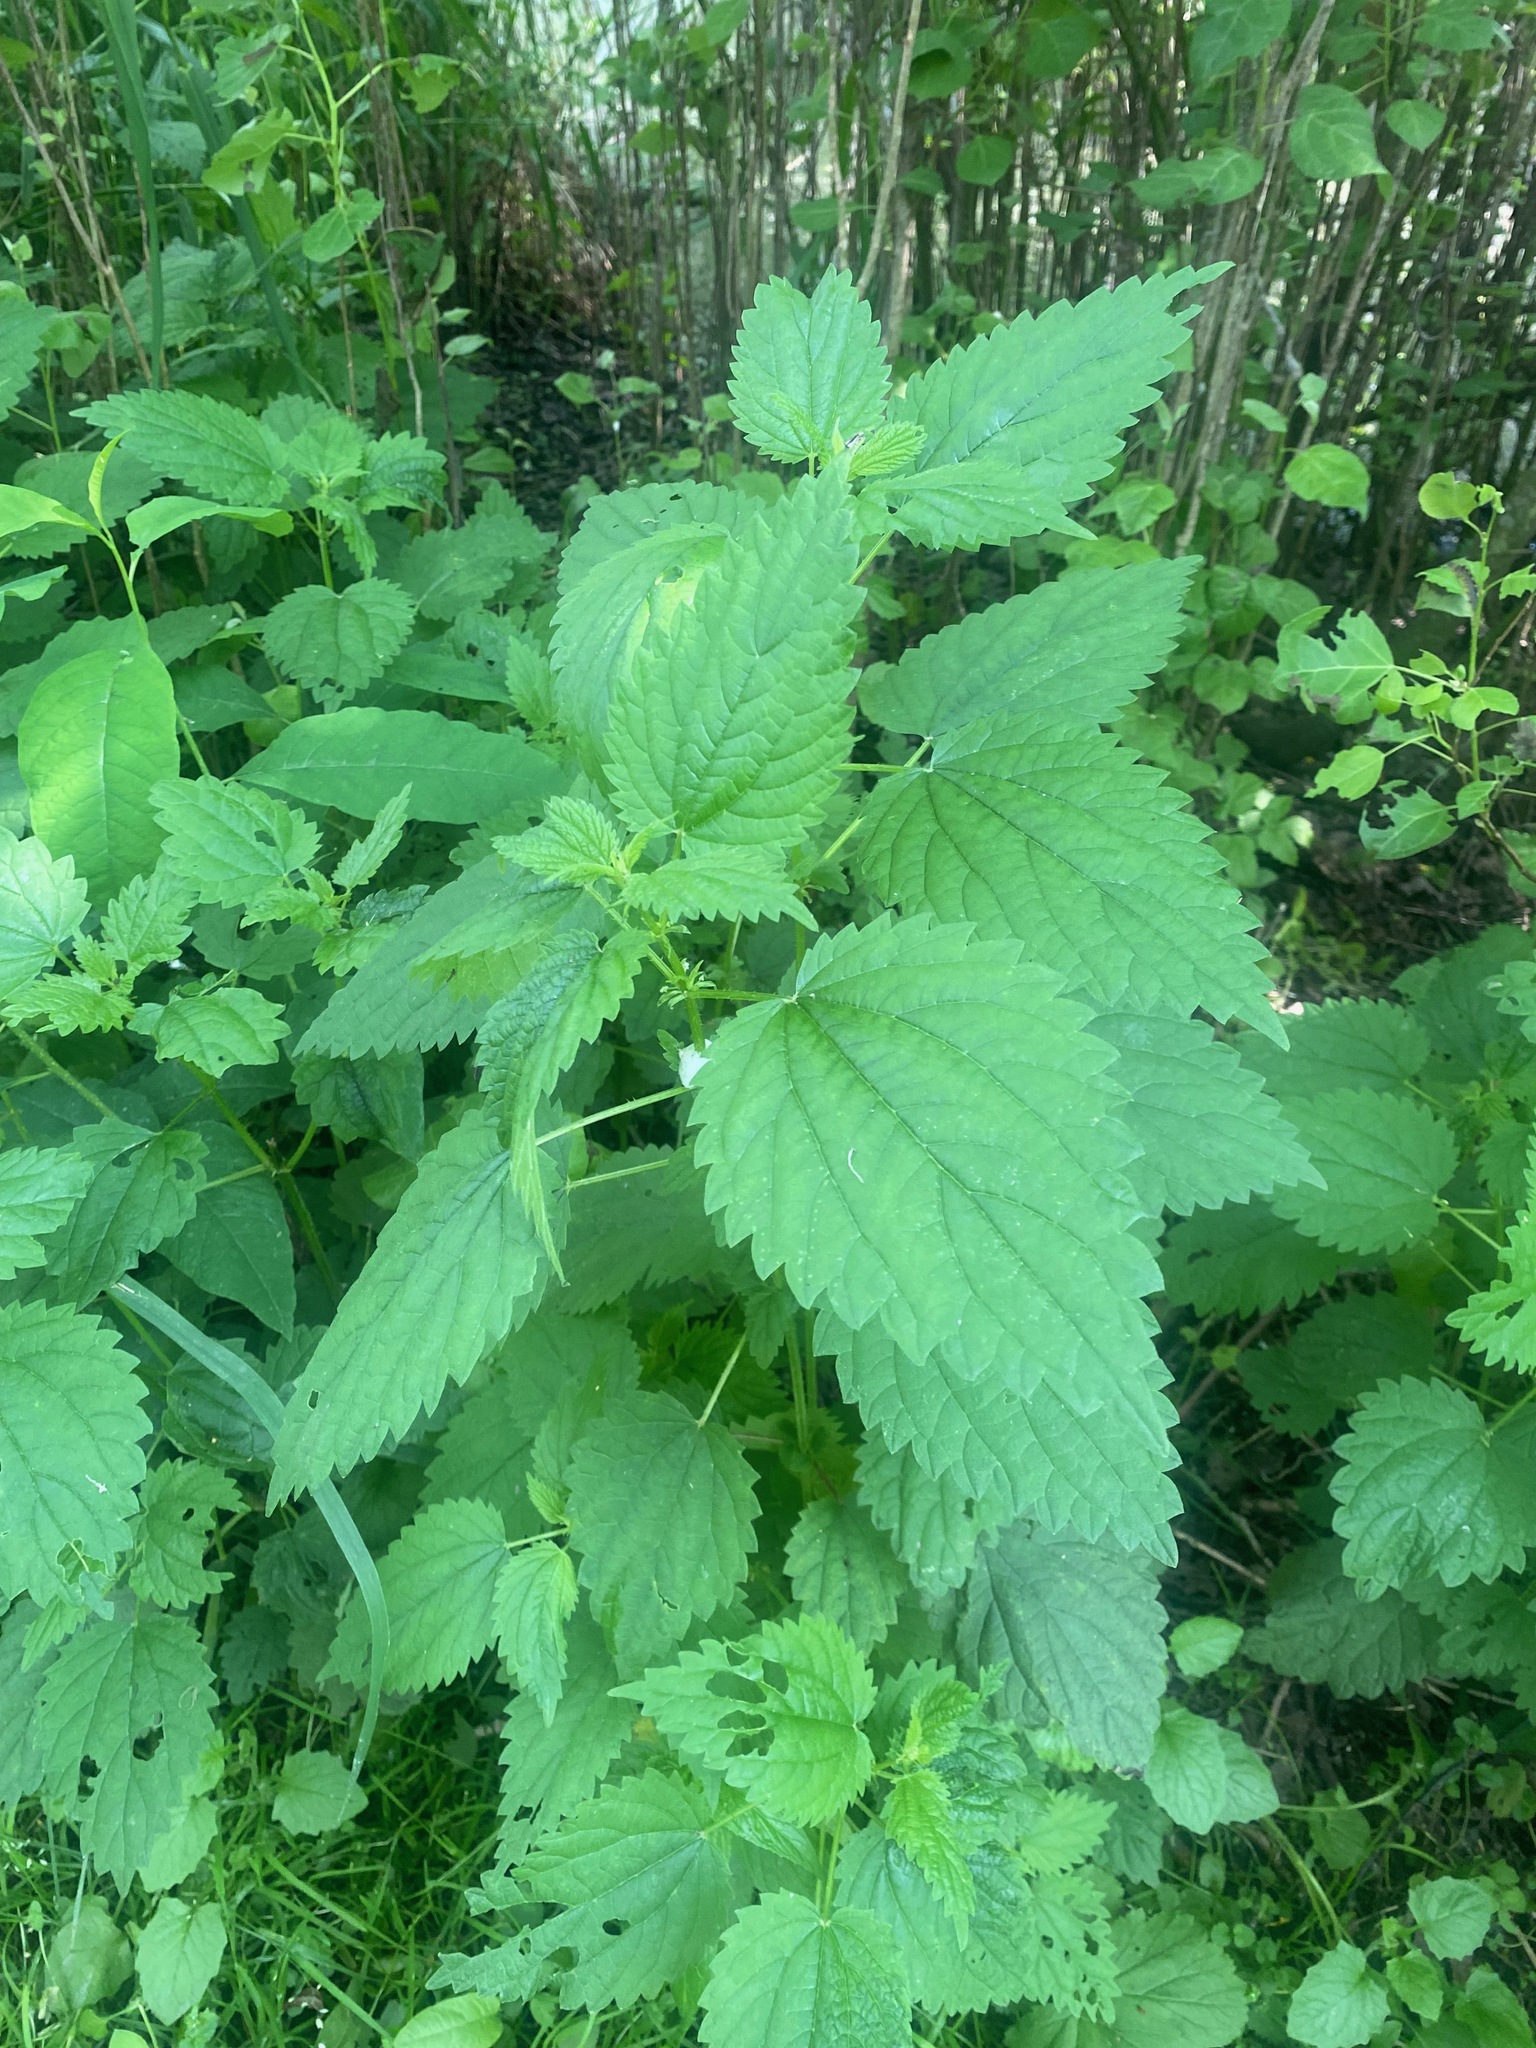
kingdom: Plantae
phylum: Tracheophyta
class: Magnoliopsida
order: Rosales
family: Urticaceae
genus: Urtica
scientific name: Urtica dioica
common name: Common nettle
